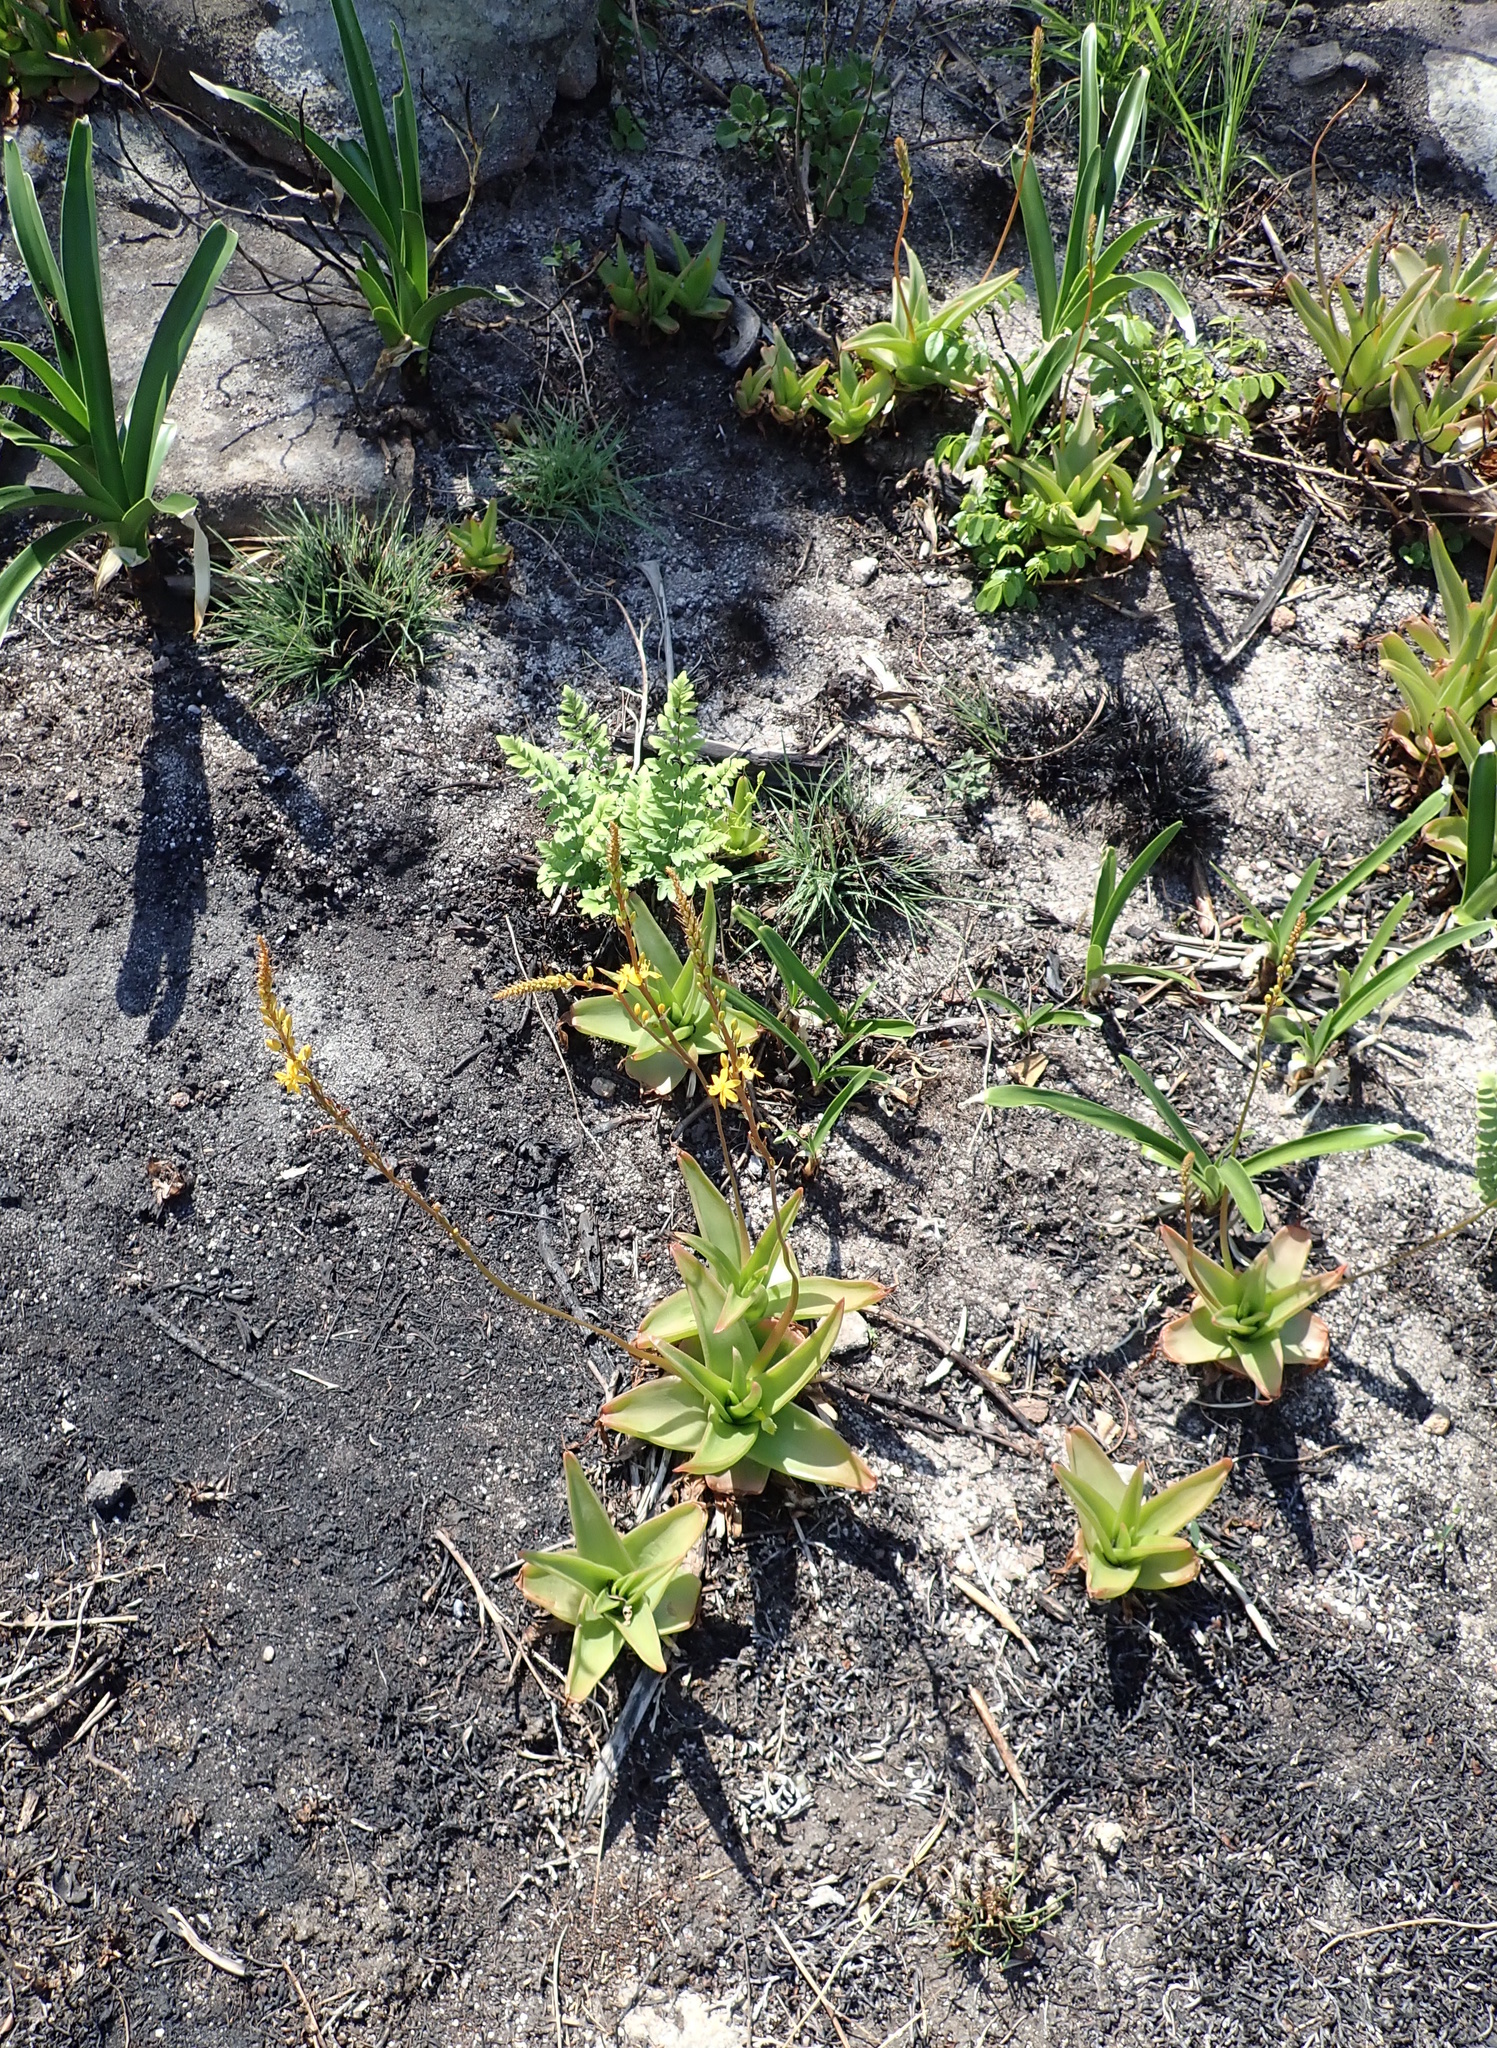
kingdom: Plantae
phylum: Tracheophyta
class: Liliopsida
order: Asparagales
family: Asphodelaceae
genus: Bulbine
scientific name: Bulbine latifolia
